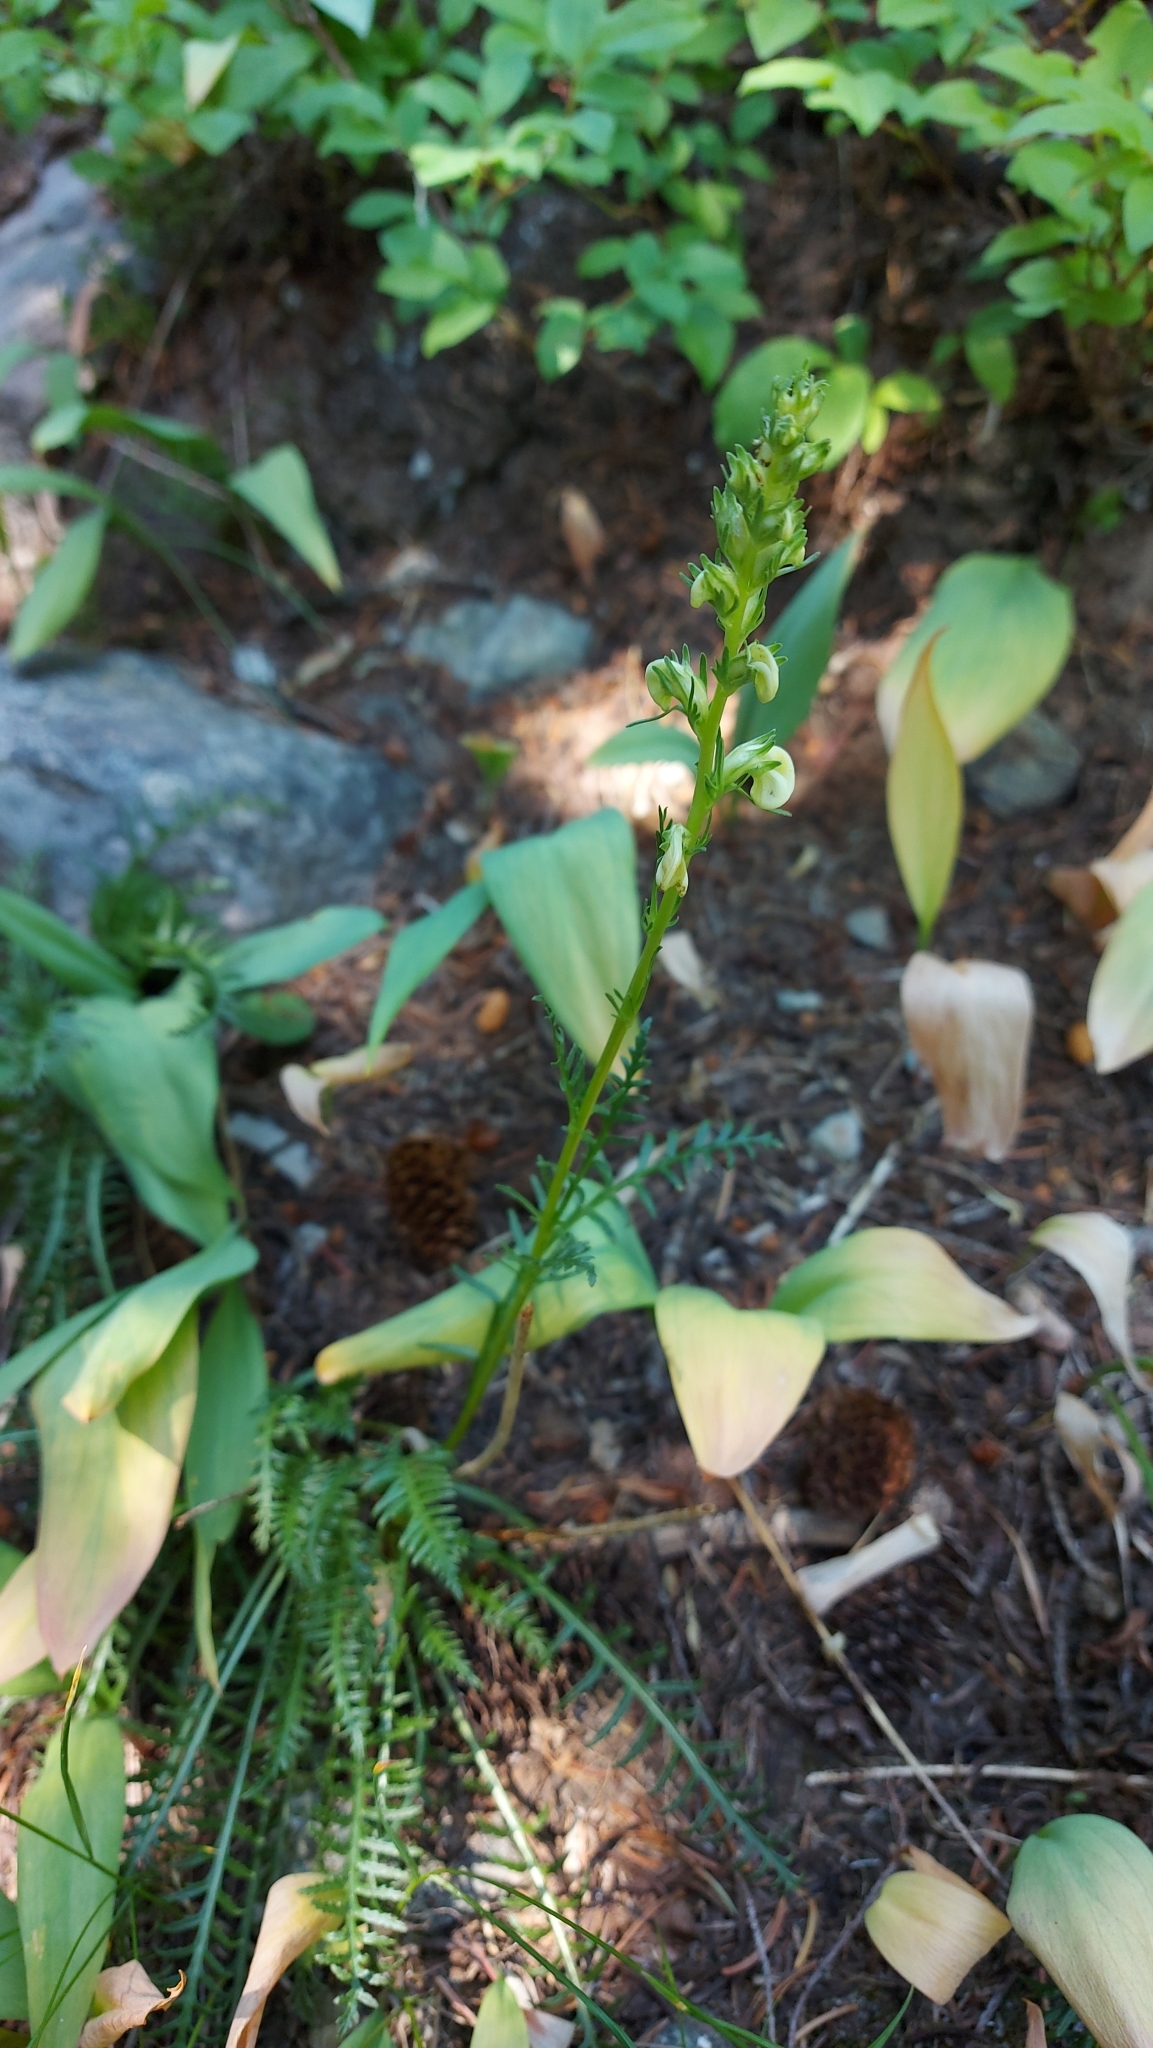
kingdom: Plantae
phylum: Tracheophyta
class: Magnoliopsida
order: Lamiales
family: Orobanchaceae
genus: Pedicularis
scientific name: Pedicularis contorta
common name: Coiled lousewort
